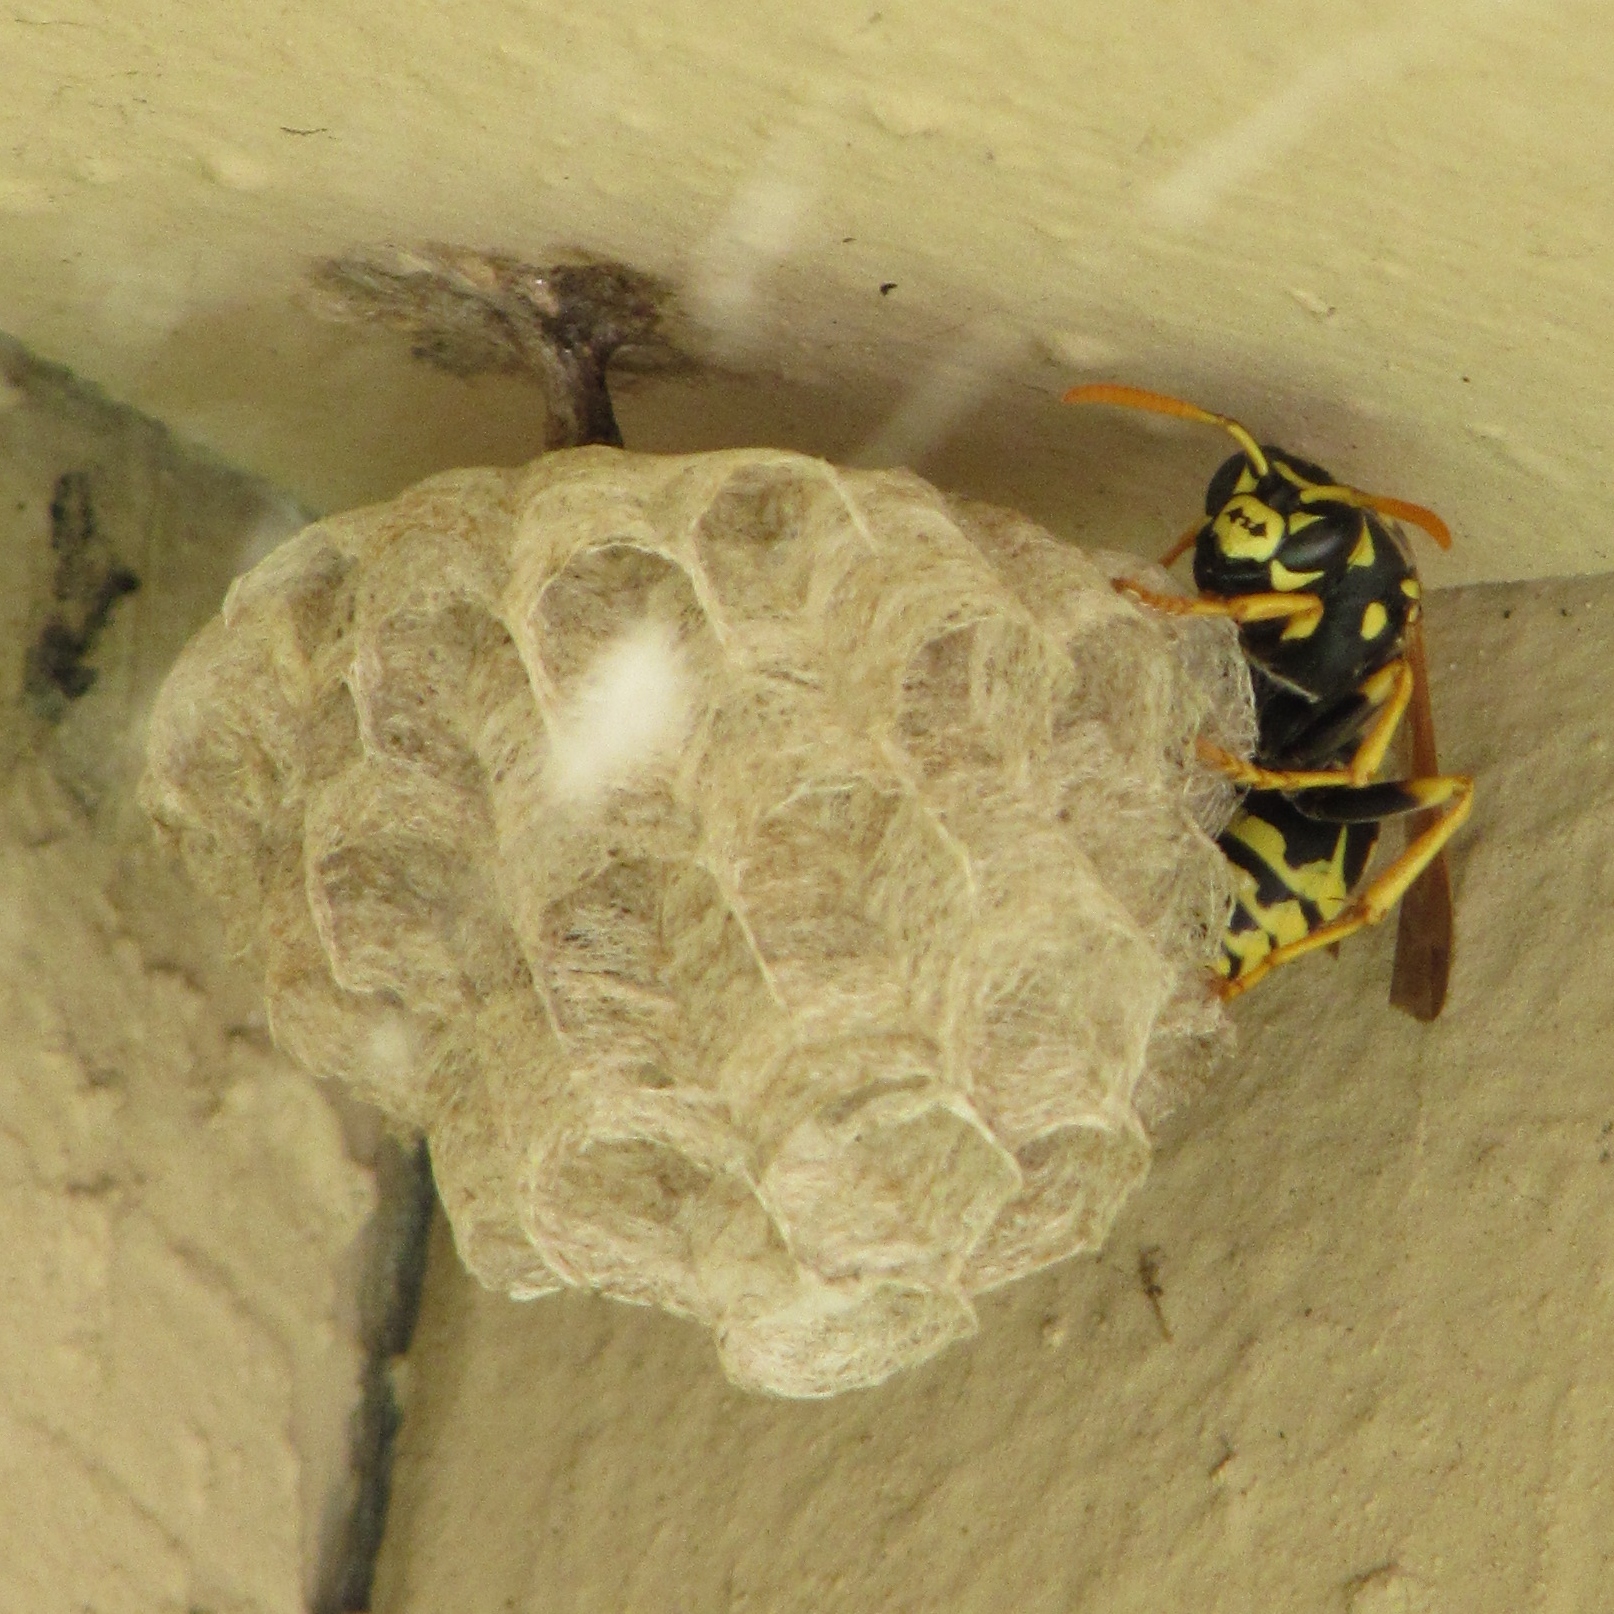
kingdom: Animalia
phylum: Arthropoda
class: Insecta
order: Hymenoptera
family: Eumenidae
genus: Polistes
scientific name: Polistes dominula
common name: Paper wasp
